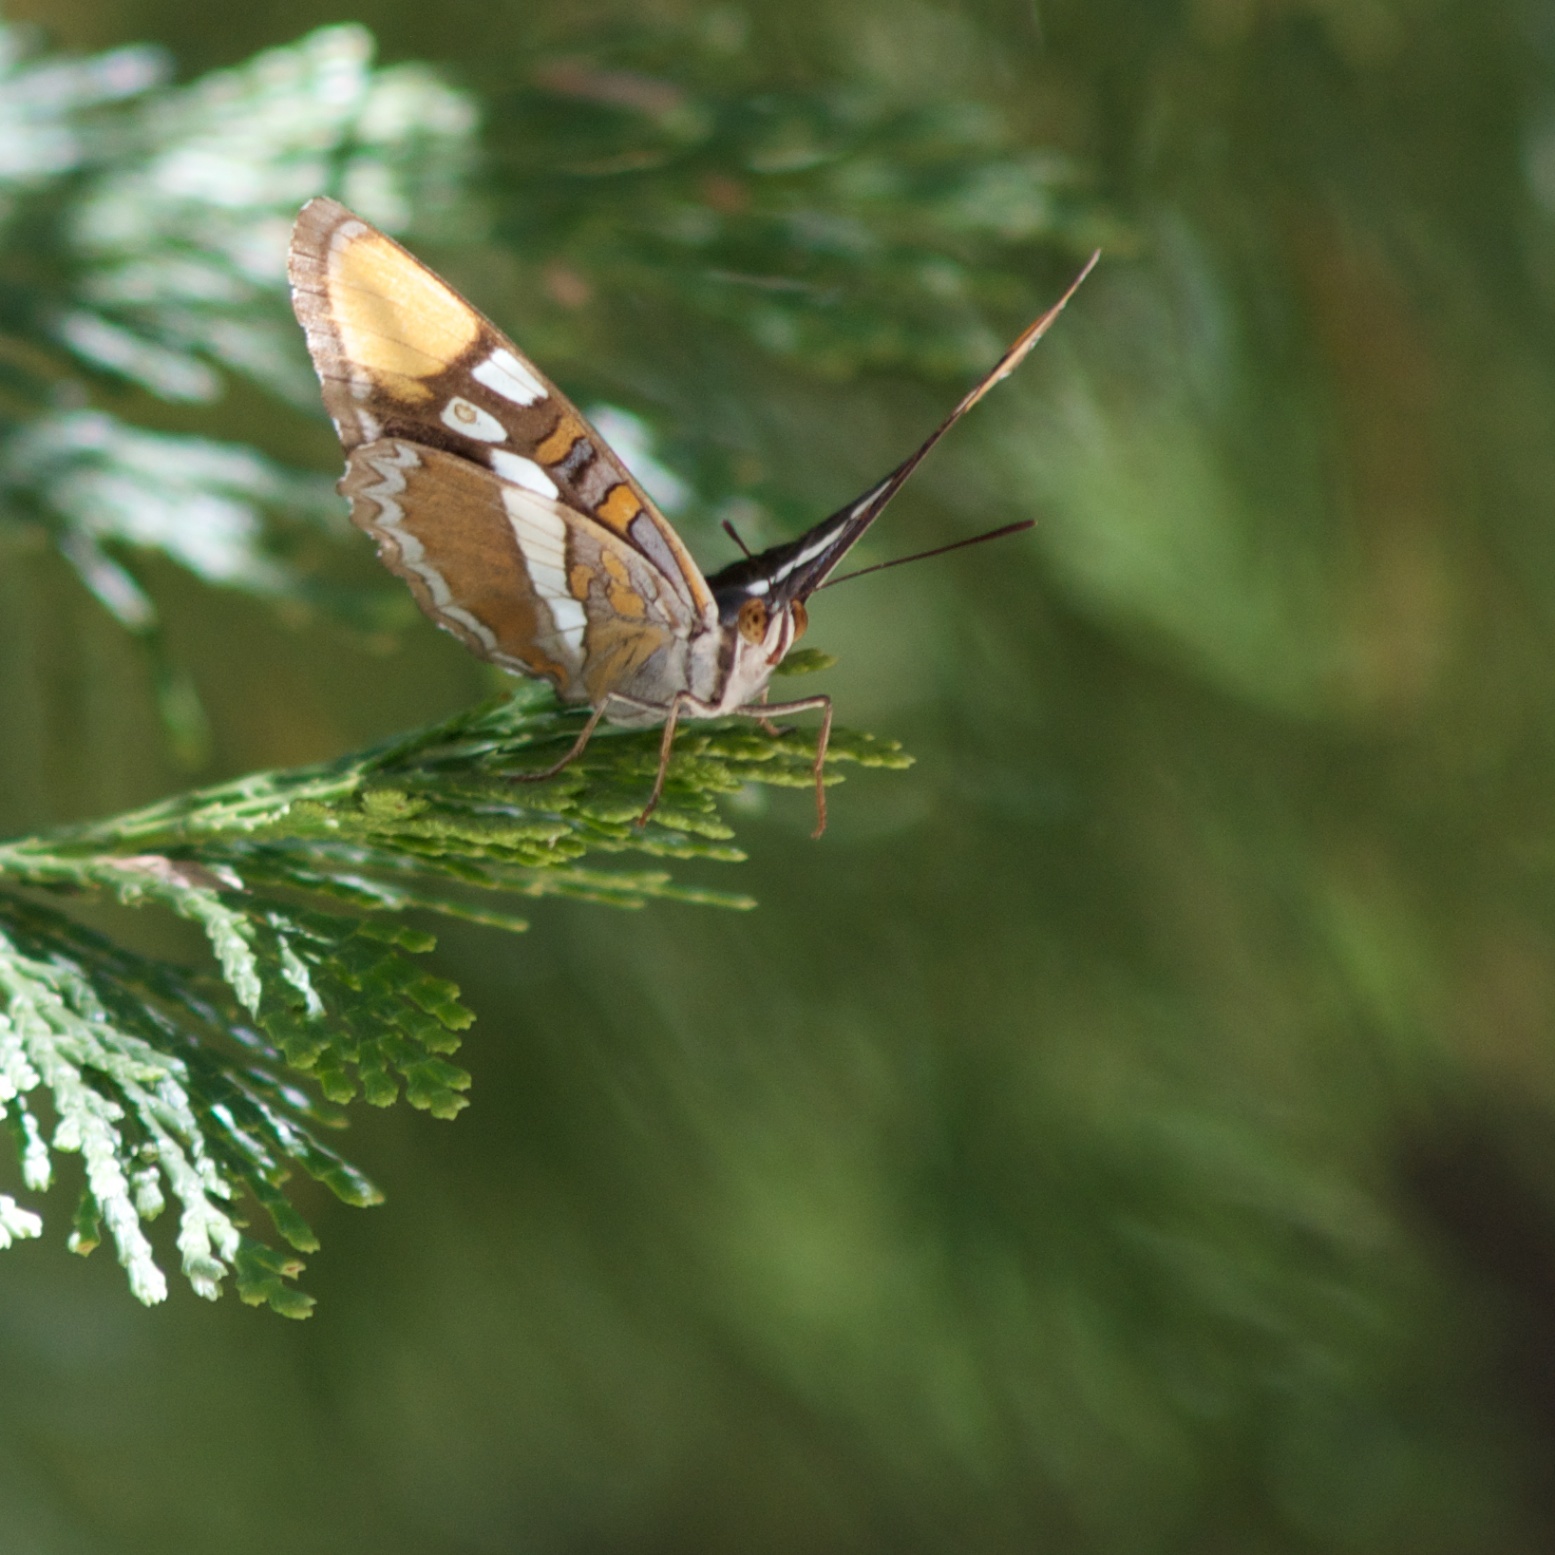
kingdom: Animalia
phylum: Arthropoda
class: Insecta
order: Lepidoptera
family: Nymphalidae
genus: Limenitis
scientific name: Limenitis bredowii
